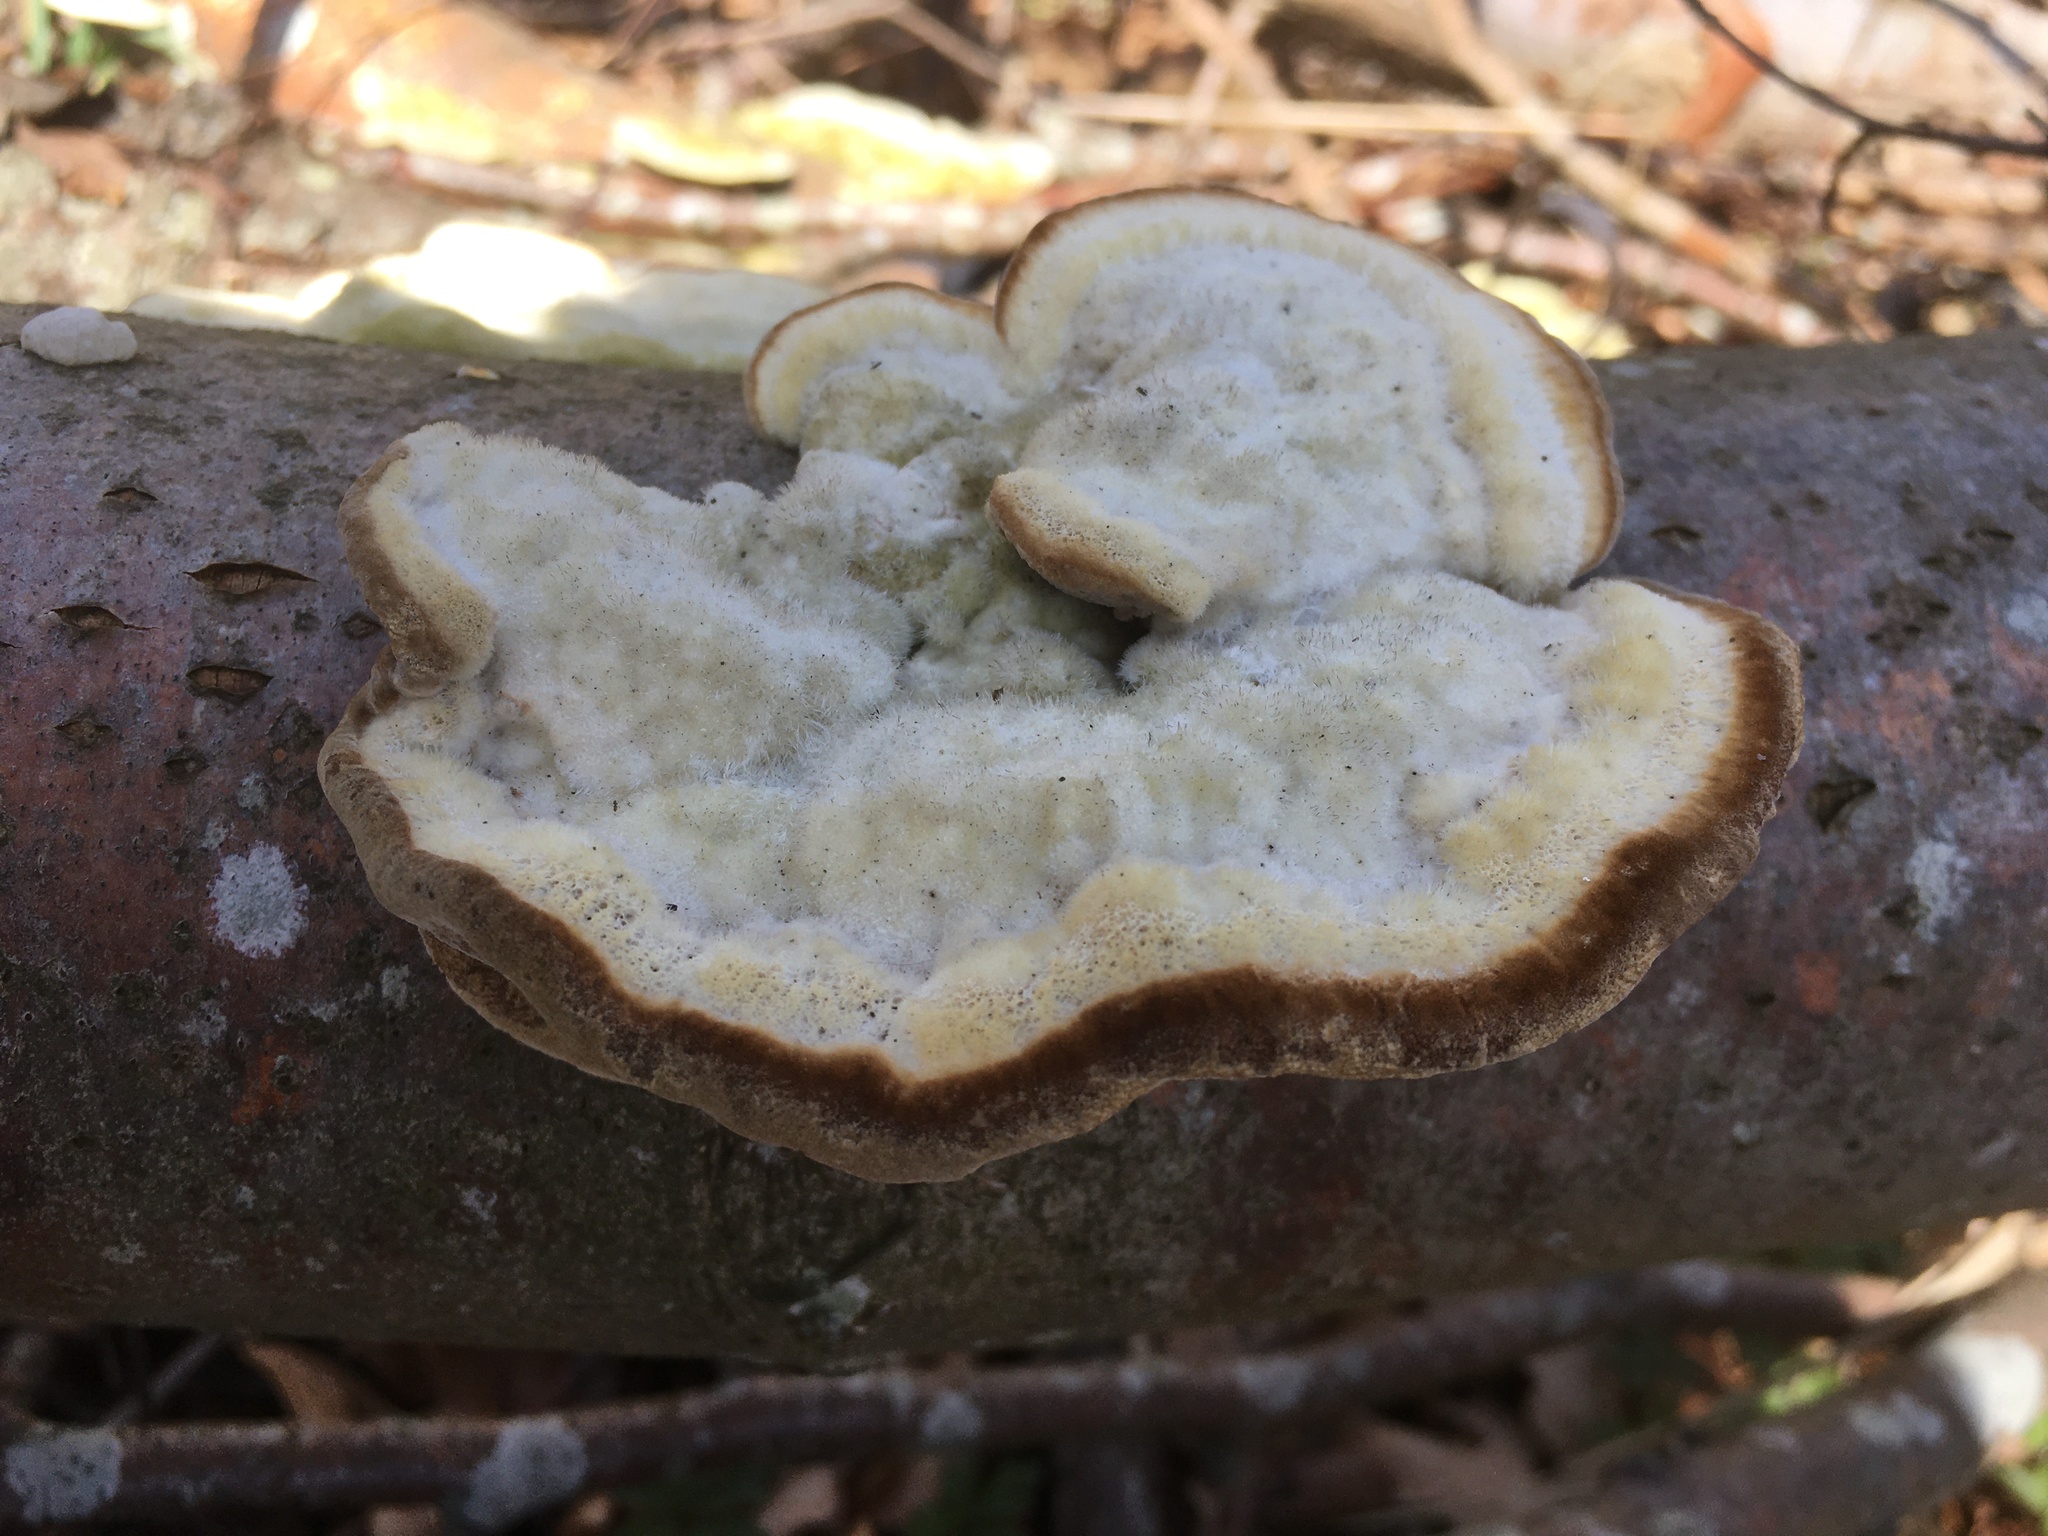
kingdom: Fungi
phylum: Basidiomycota
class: Agaricomycetes
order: Polyporales
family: Polyporaceae
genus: Trametes
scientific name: Trametes hirsuta
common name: Hairy bracket
